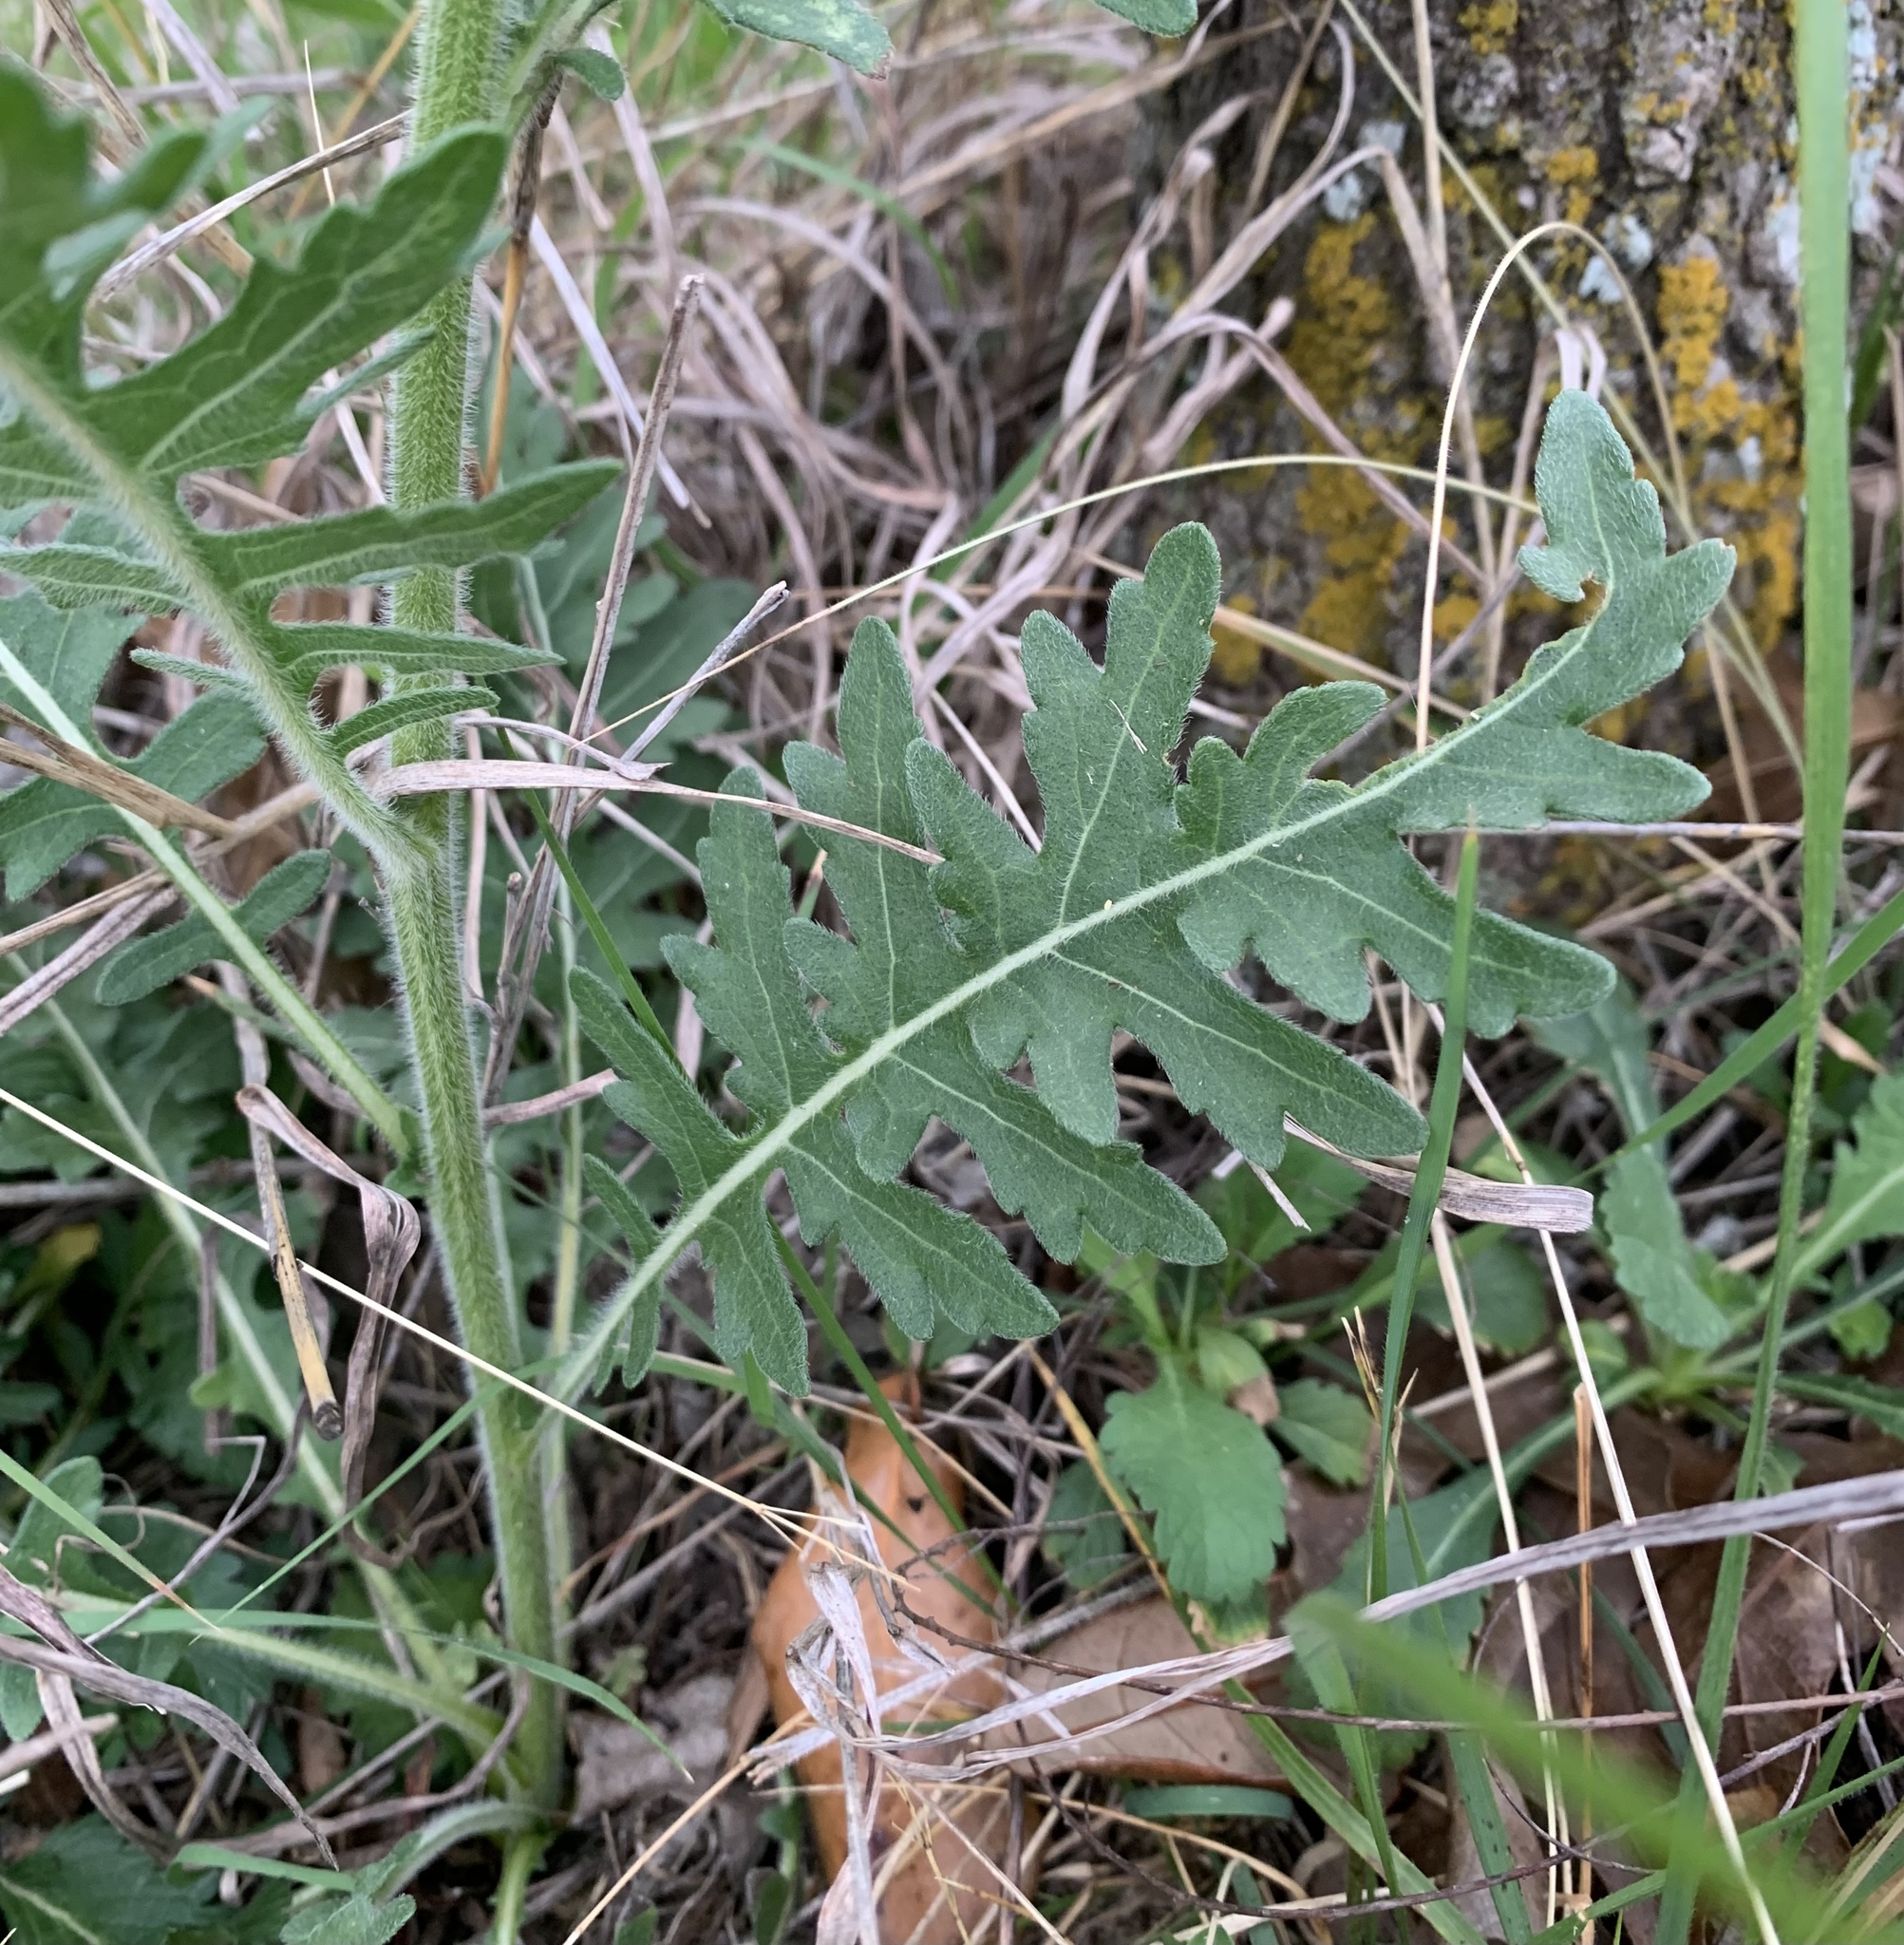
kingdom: Plantae
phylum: Tracheophyta
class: Magnoliopsida
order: Asterales
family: Asteraceae
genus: Engelmannia
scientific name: Engelmannia peristenia
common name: Engelmann's daisy
